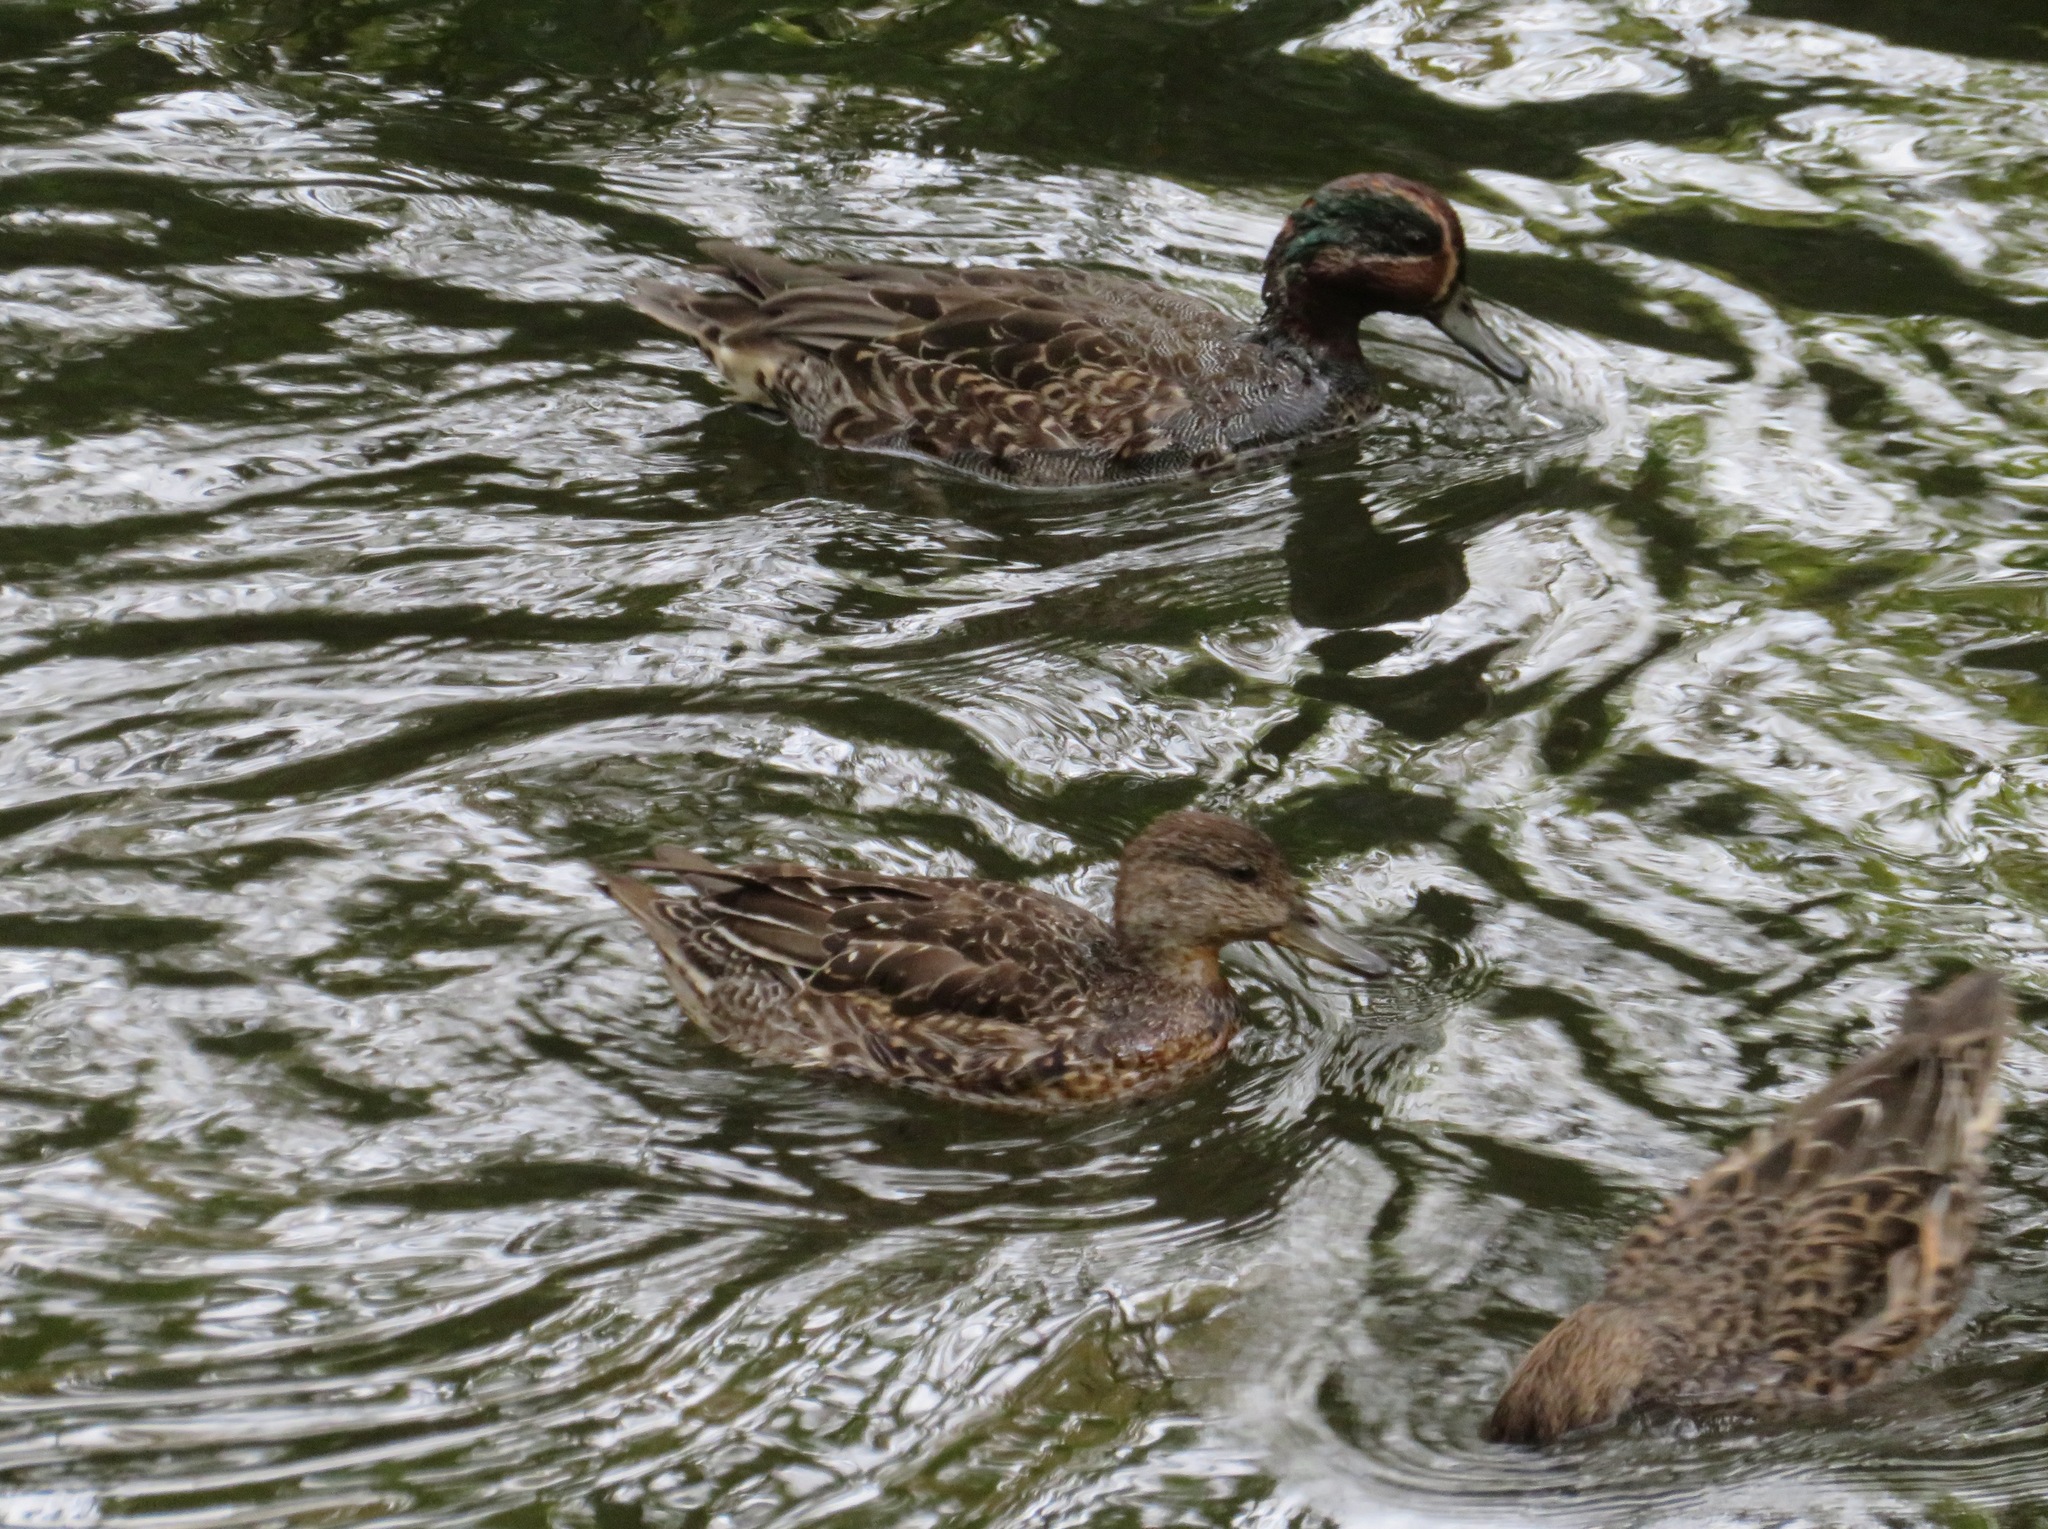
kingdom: Animalia
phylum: Chordata
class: Aves
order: Anseriformes
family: Anatidae
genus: Anas
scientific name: Anas crecca
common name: Eurasian teal
